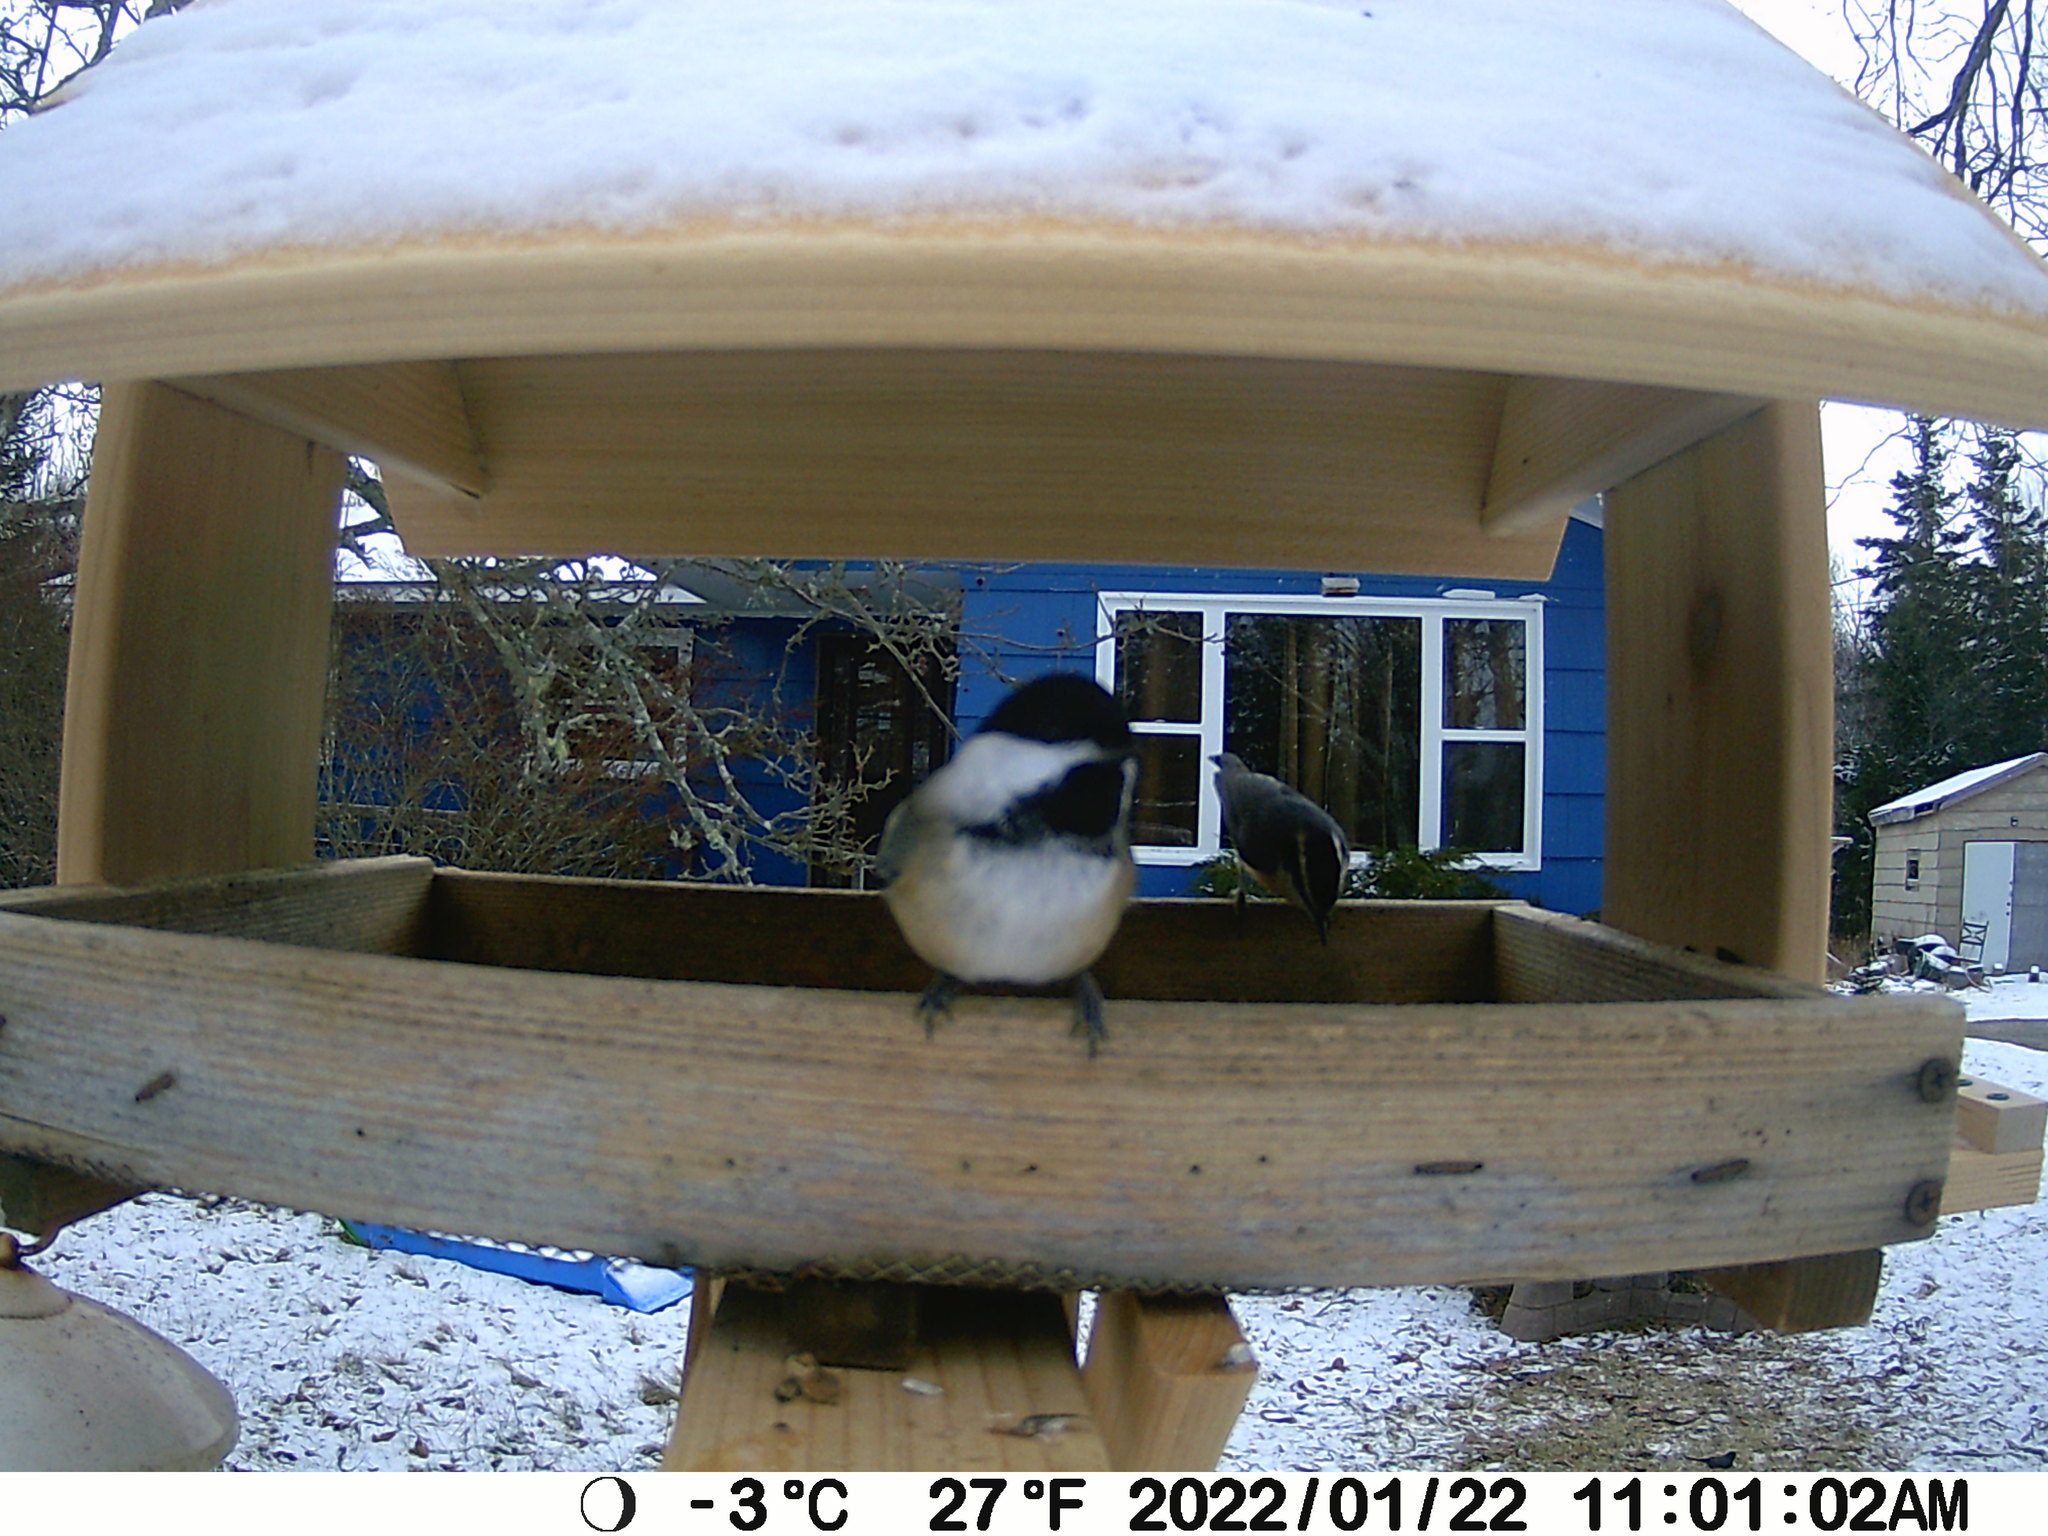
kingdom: Animalia
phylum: Chordata
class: Aves
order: Passeriformes
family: Sittidae
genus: Sitta
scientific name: Sitta canadensis
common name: Red-breasted nuthatch
